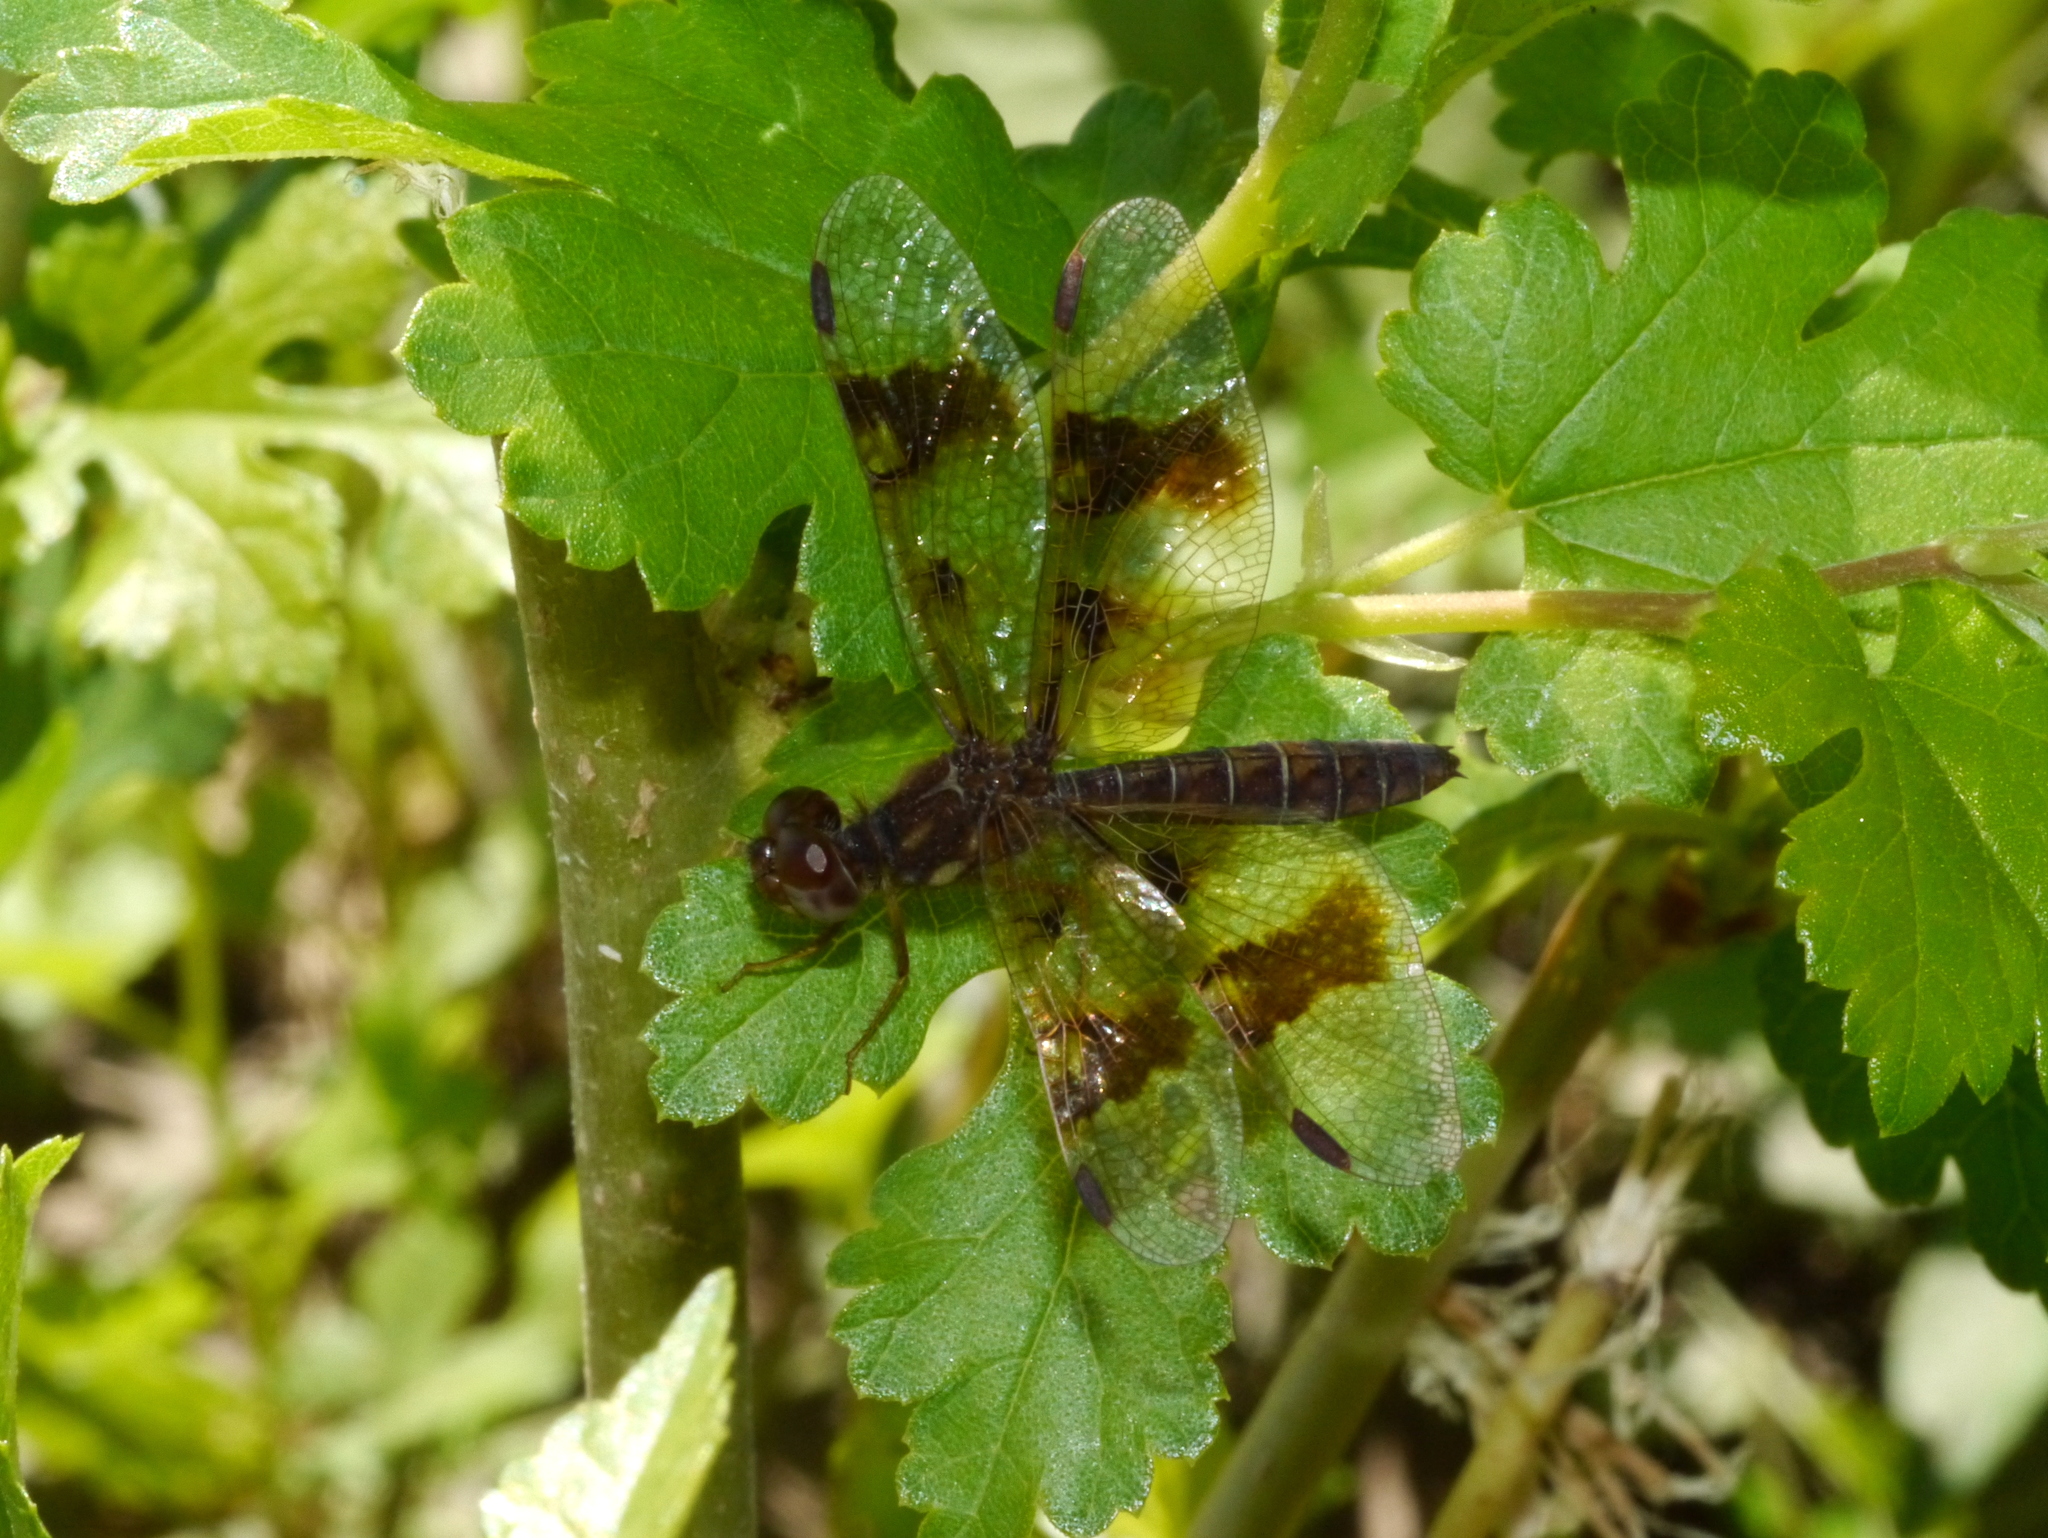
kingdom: Animalia
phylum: Arthropoda
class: Insecta
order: Odonata
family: Libellulidae
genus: Perithemis
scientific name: Perithemis tenera
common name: Eastern amberwing
